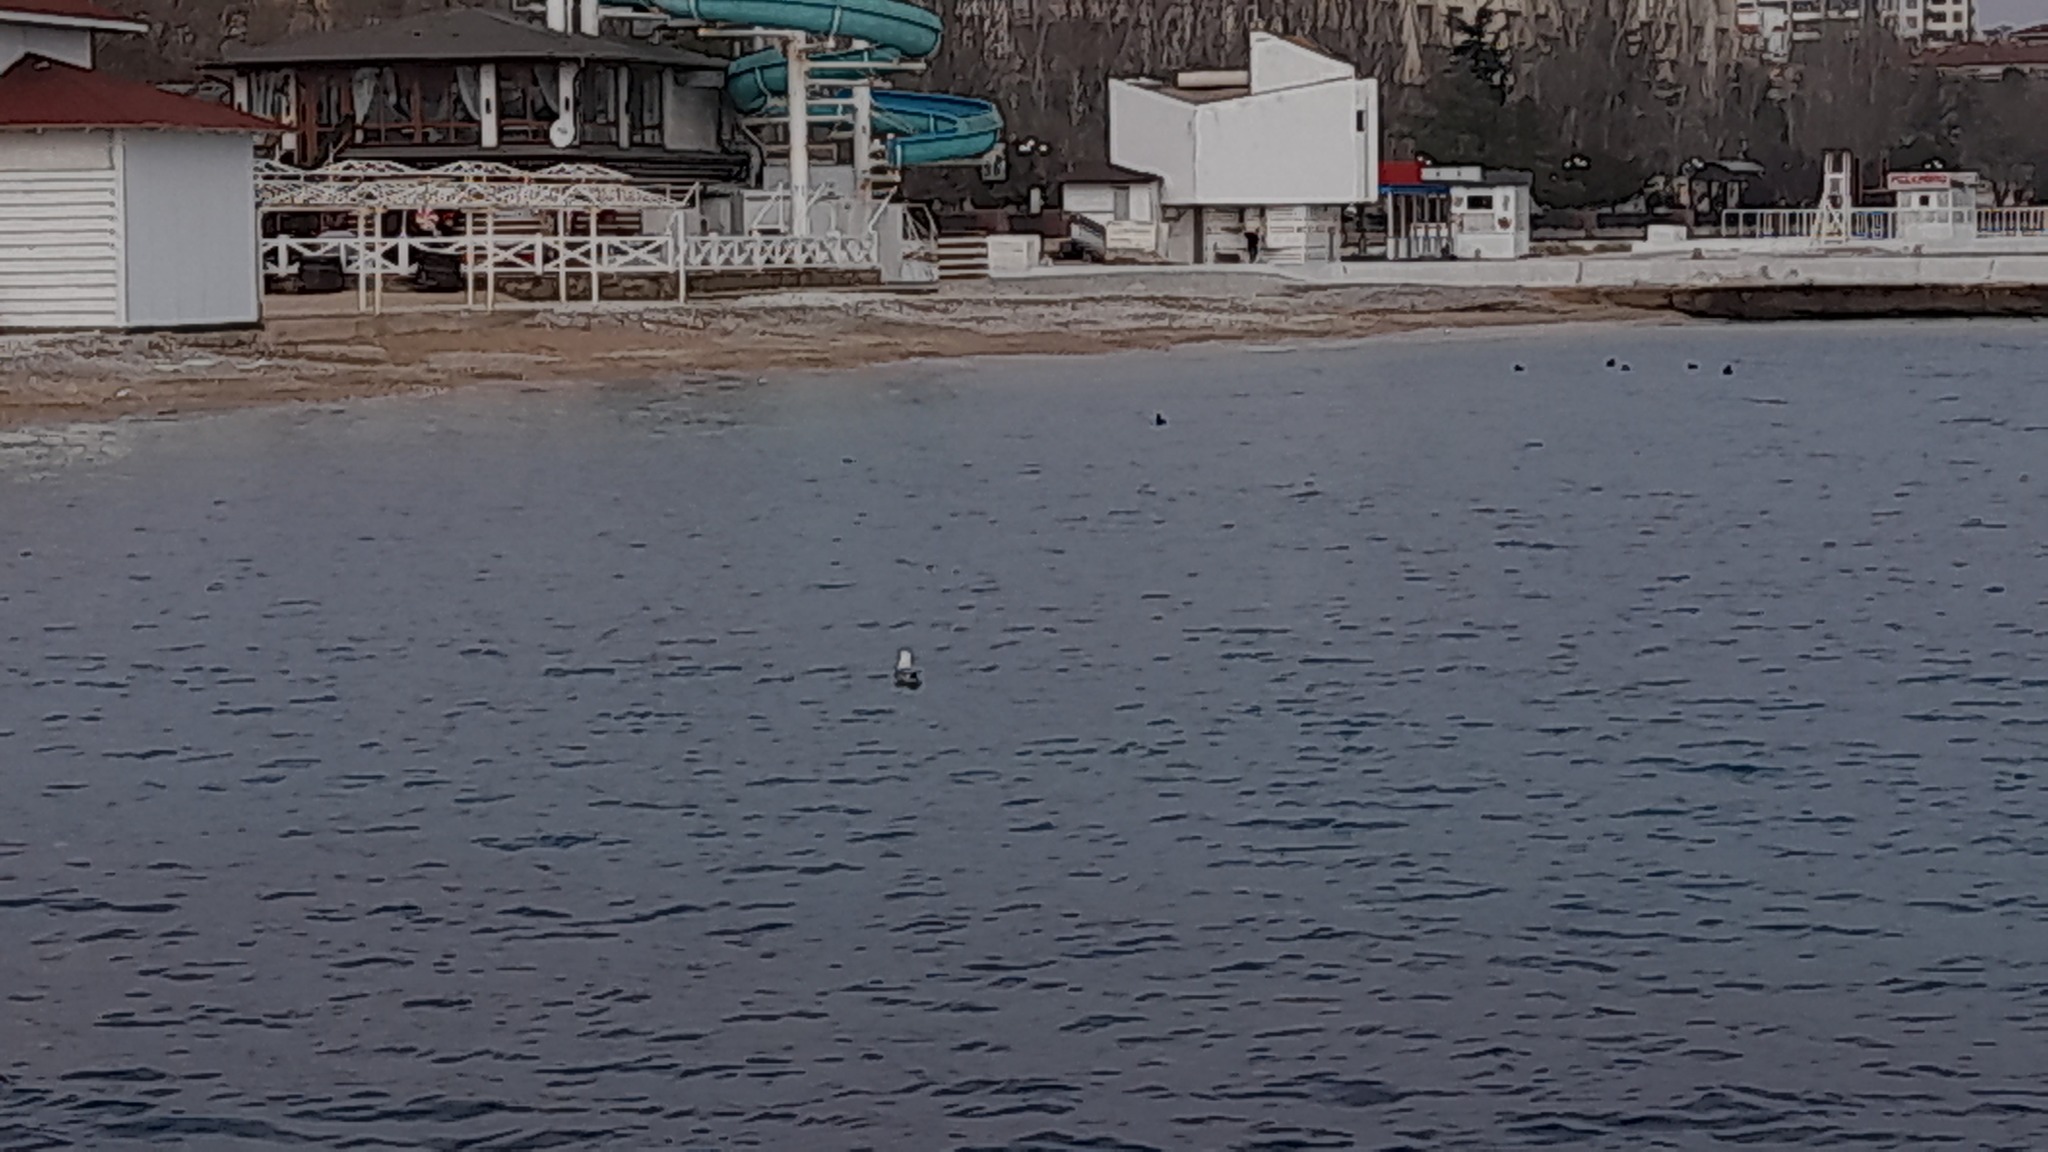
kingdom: Animalia
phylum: Chordata
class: Aves
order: Charadriiformes
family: Laridae
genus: Larus
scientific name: Larus canus
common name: Mew gull
